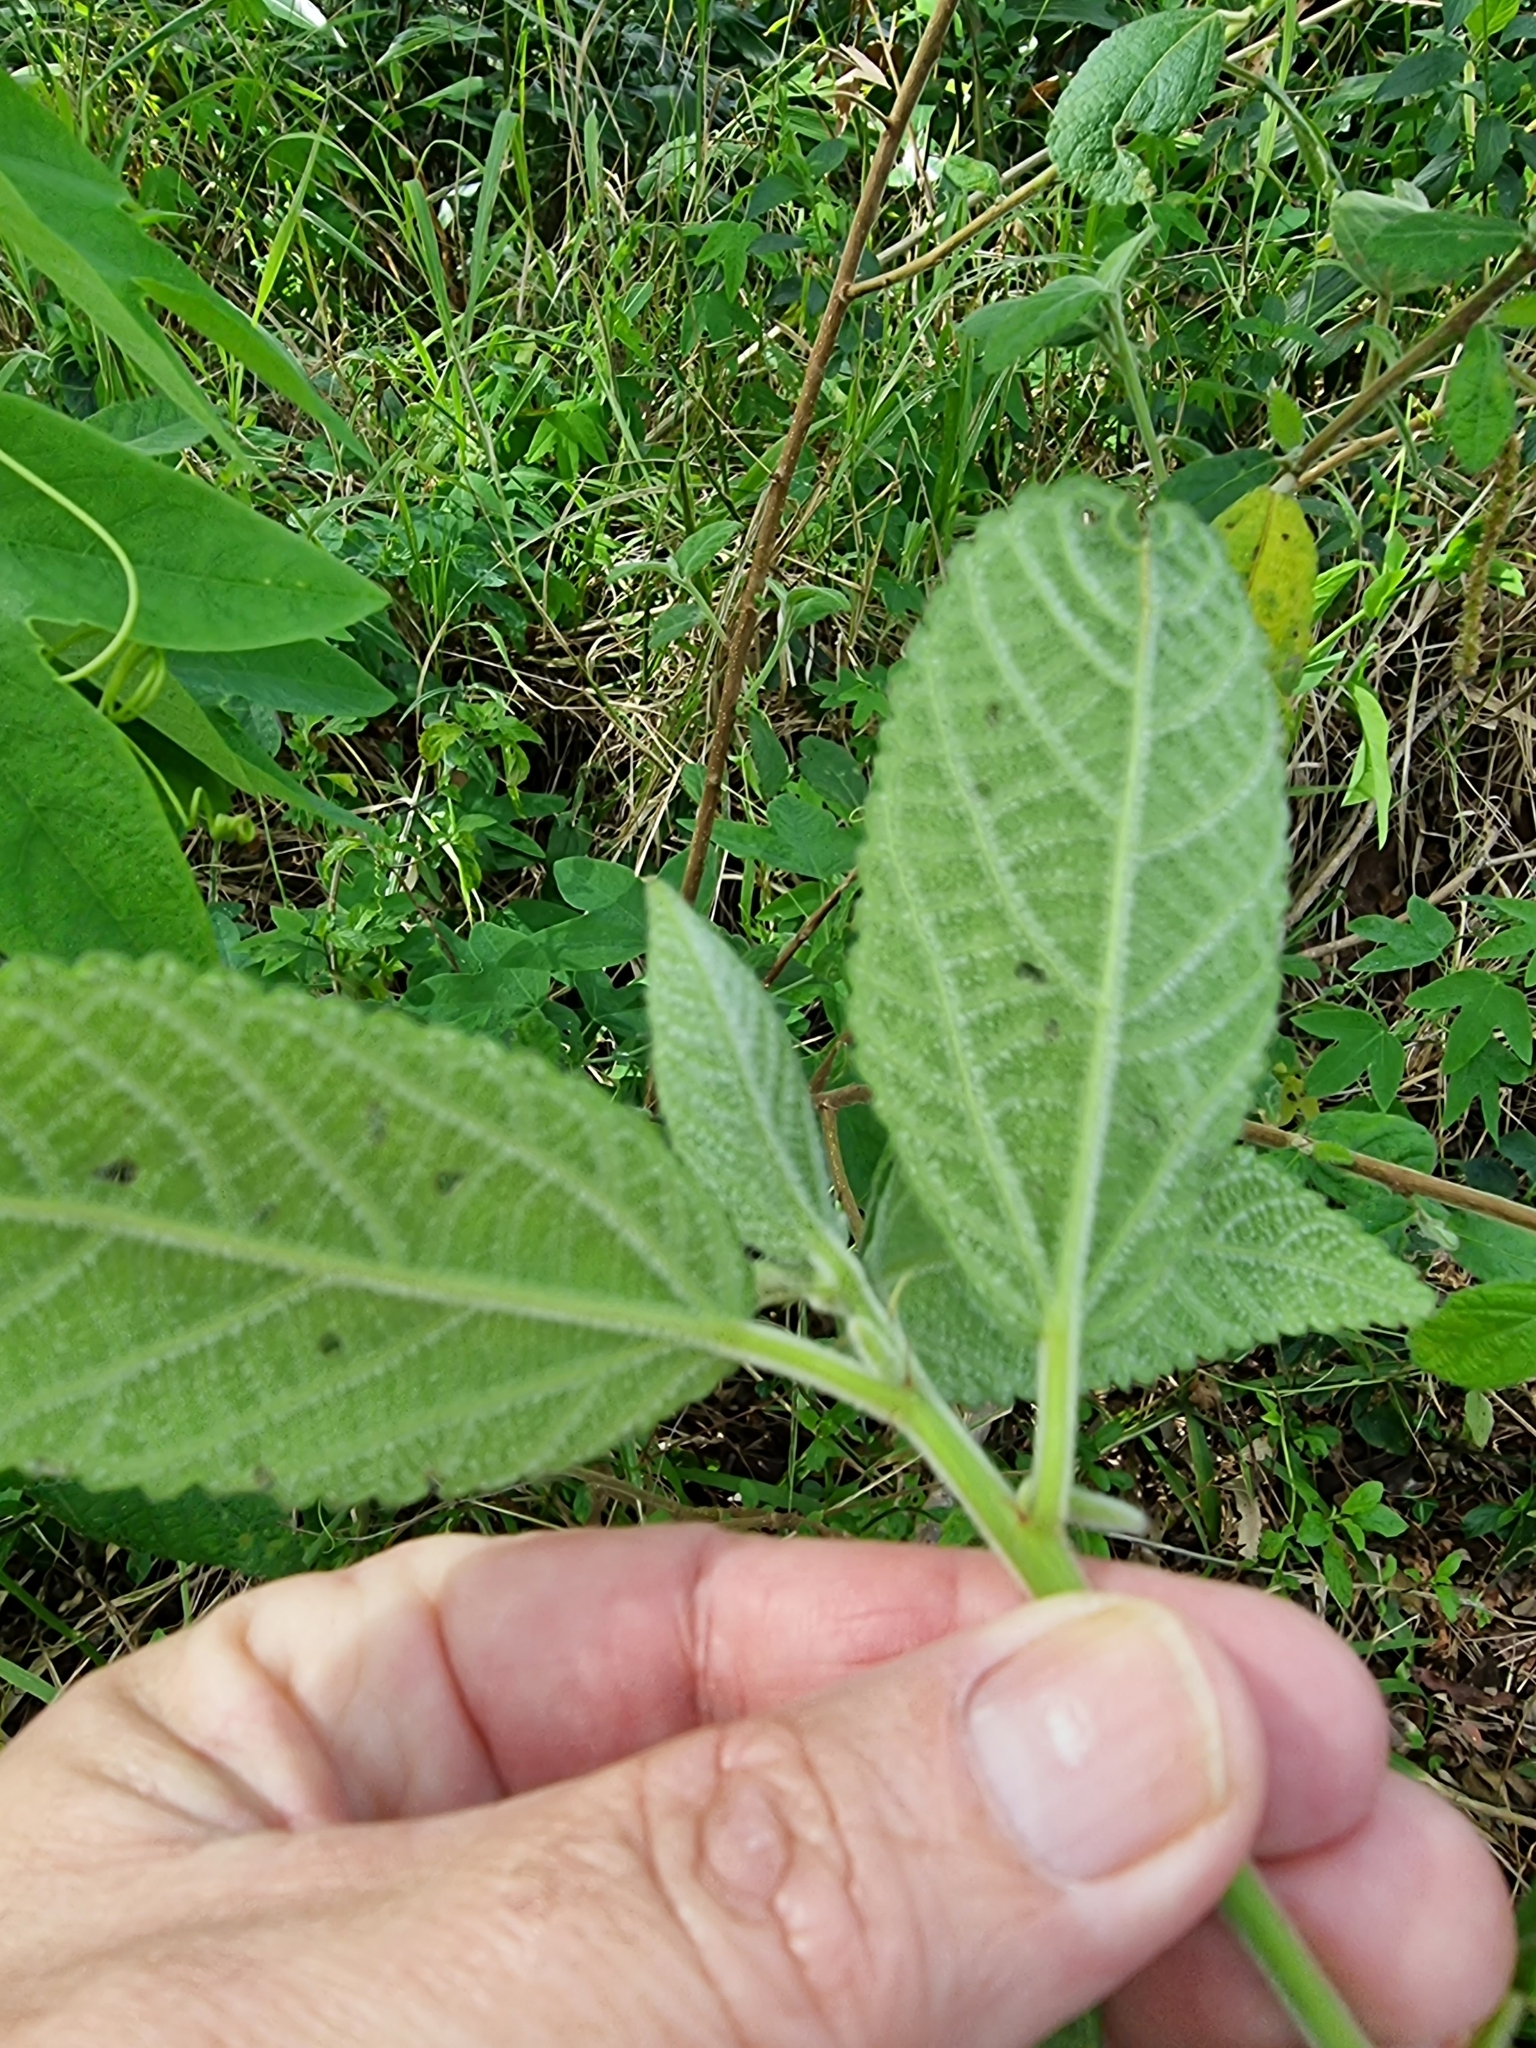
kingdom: Plantae
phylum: Tracheophyta
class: Magnoliopsida
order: Malpighiales
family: Euphorbiaceae
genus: Acalypha
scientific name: Acalypha nemorum
